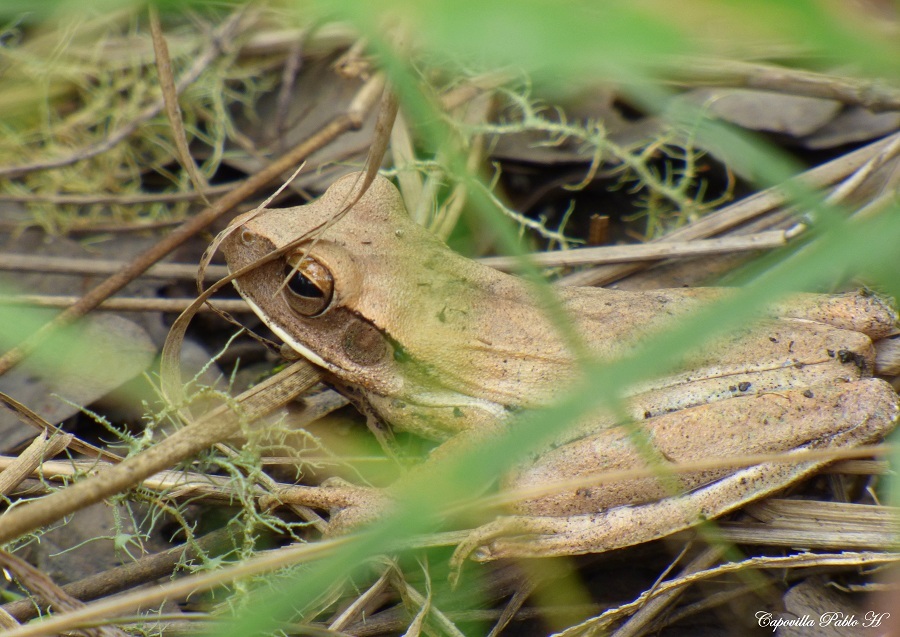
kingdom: Animalia
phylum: Chordata
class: Amphibia
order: Anura
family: Hylidae
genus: Boana
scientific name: Boana raniceps
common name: Chaco treefrog
